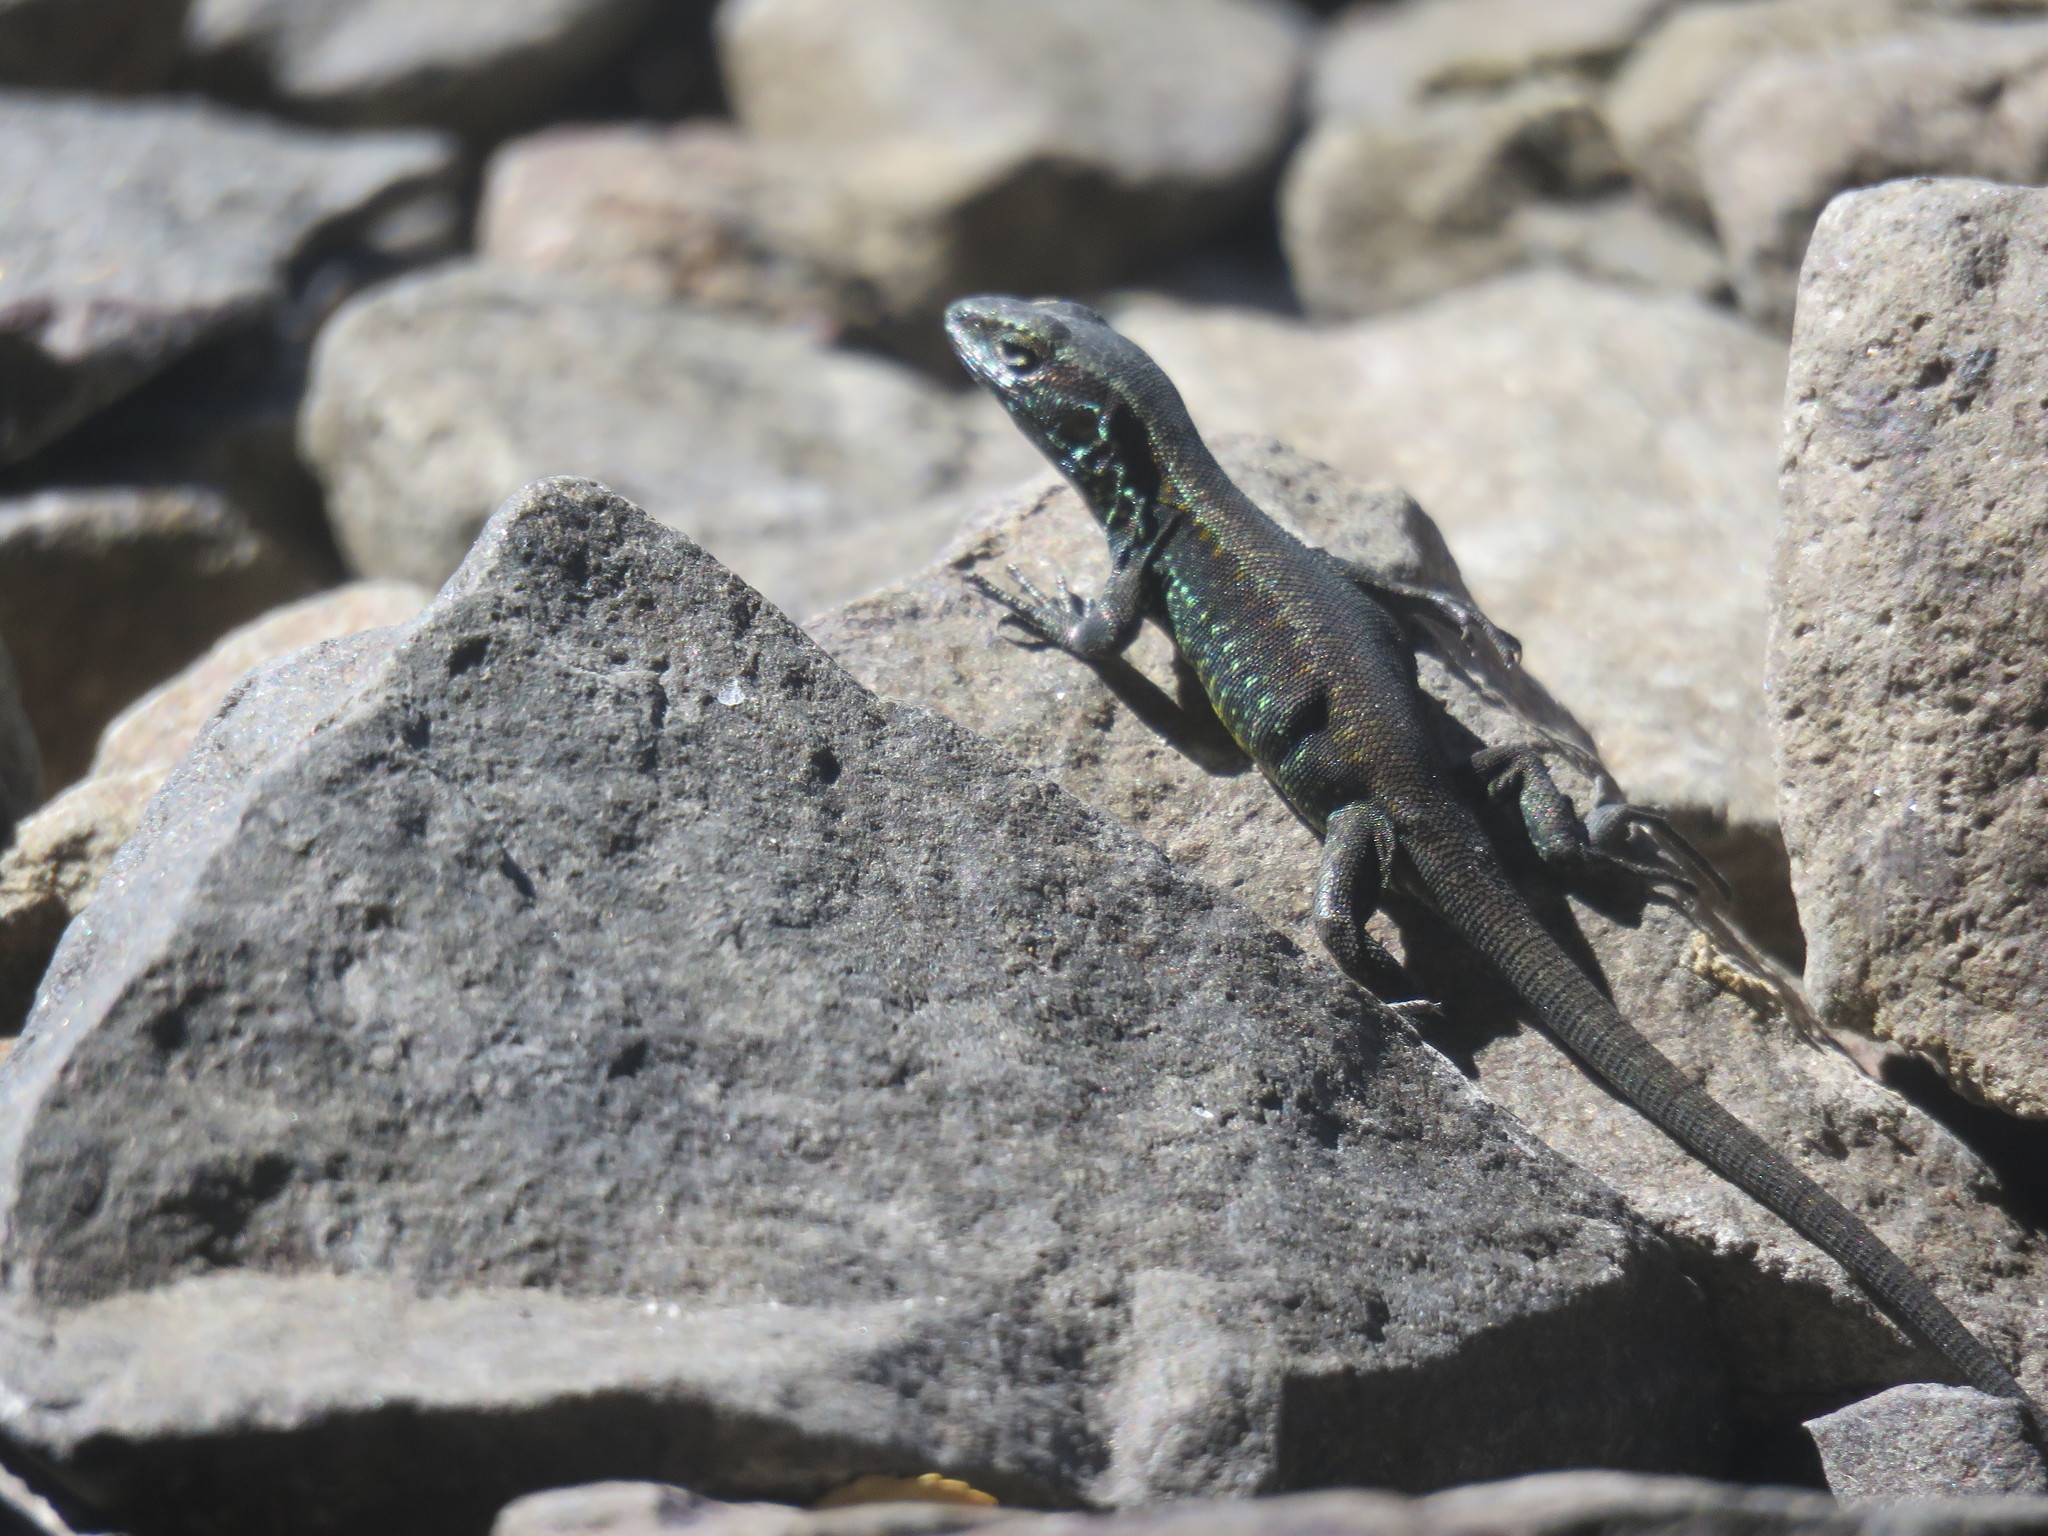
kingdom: Animalia
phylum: Chordata
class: Squamata
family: Liolaemidae
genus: Liolaemus
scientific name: Liolaemus pictus
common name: Painted tree iguana
